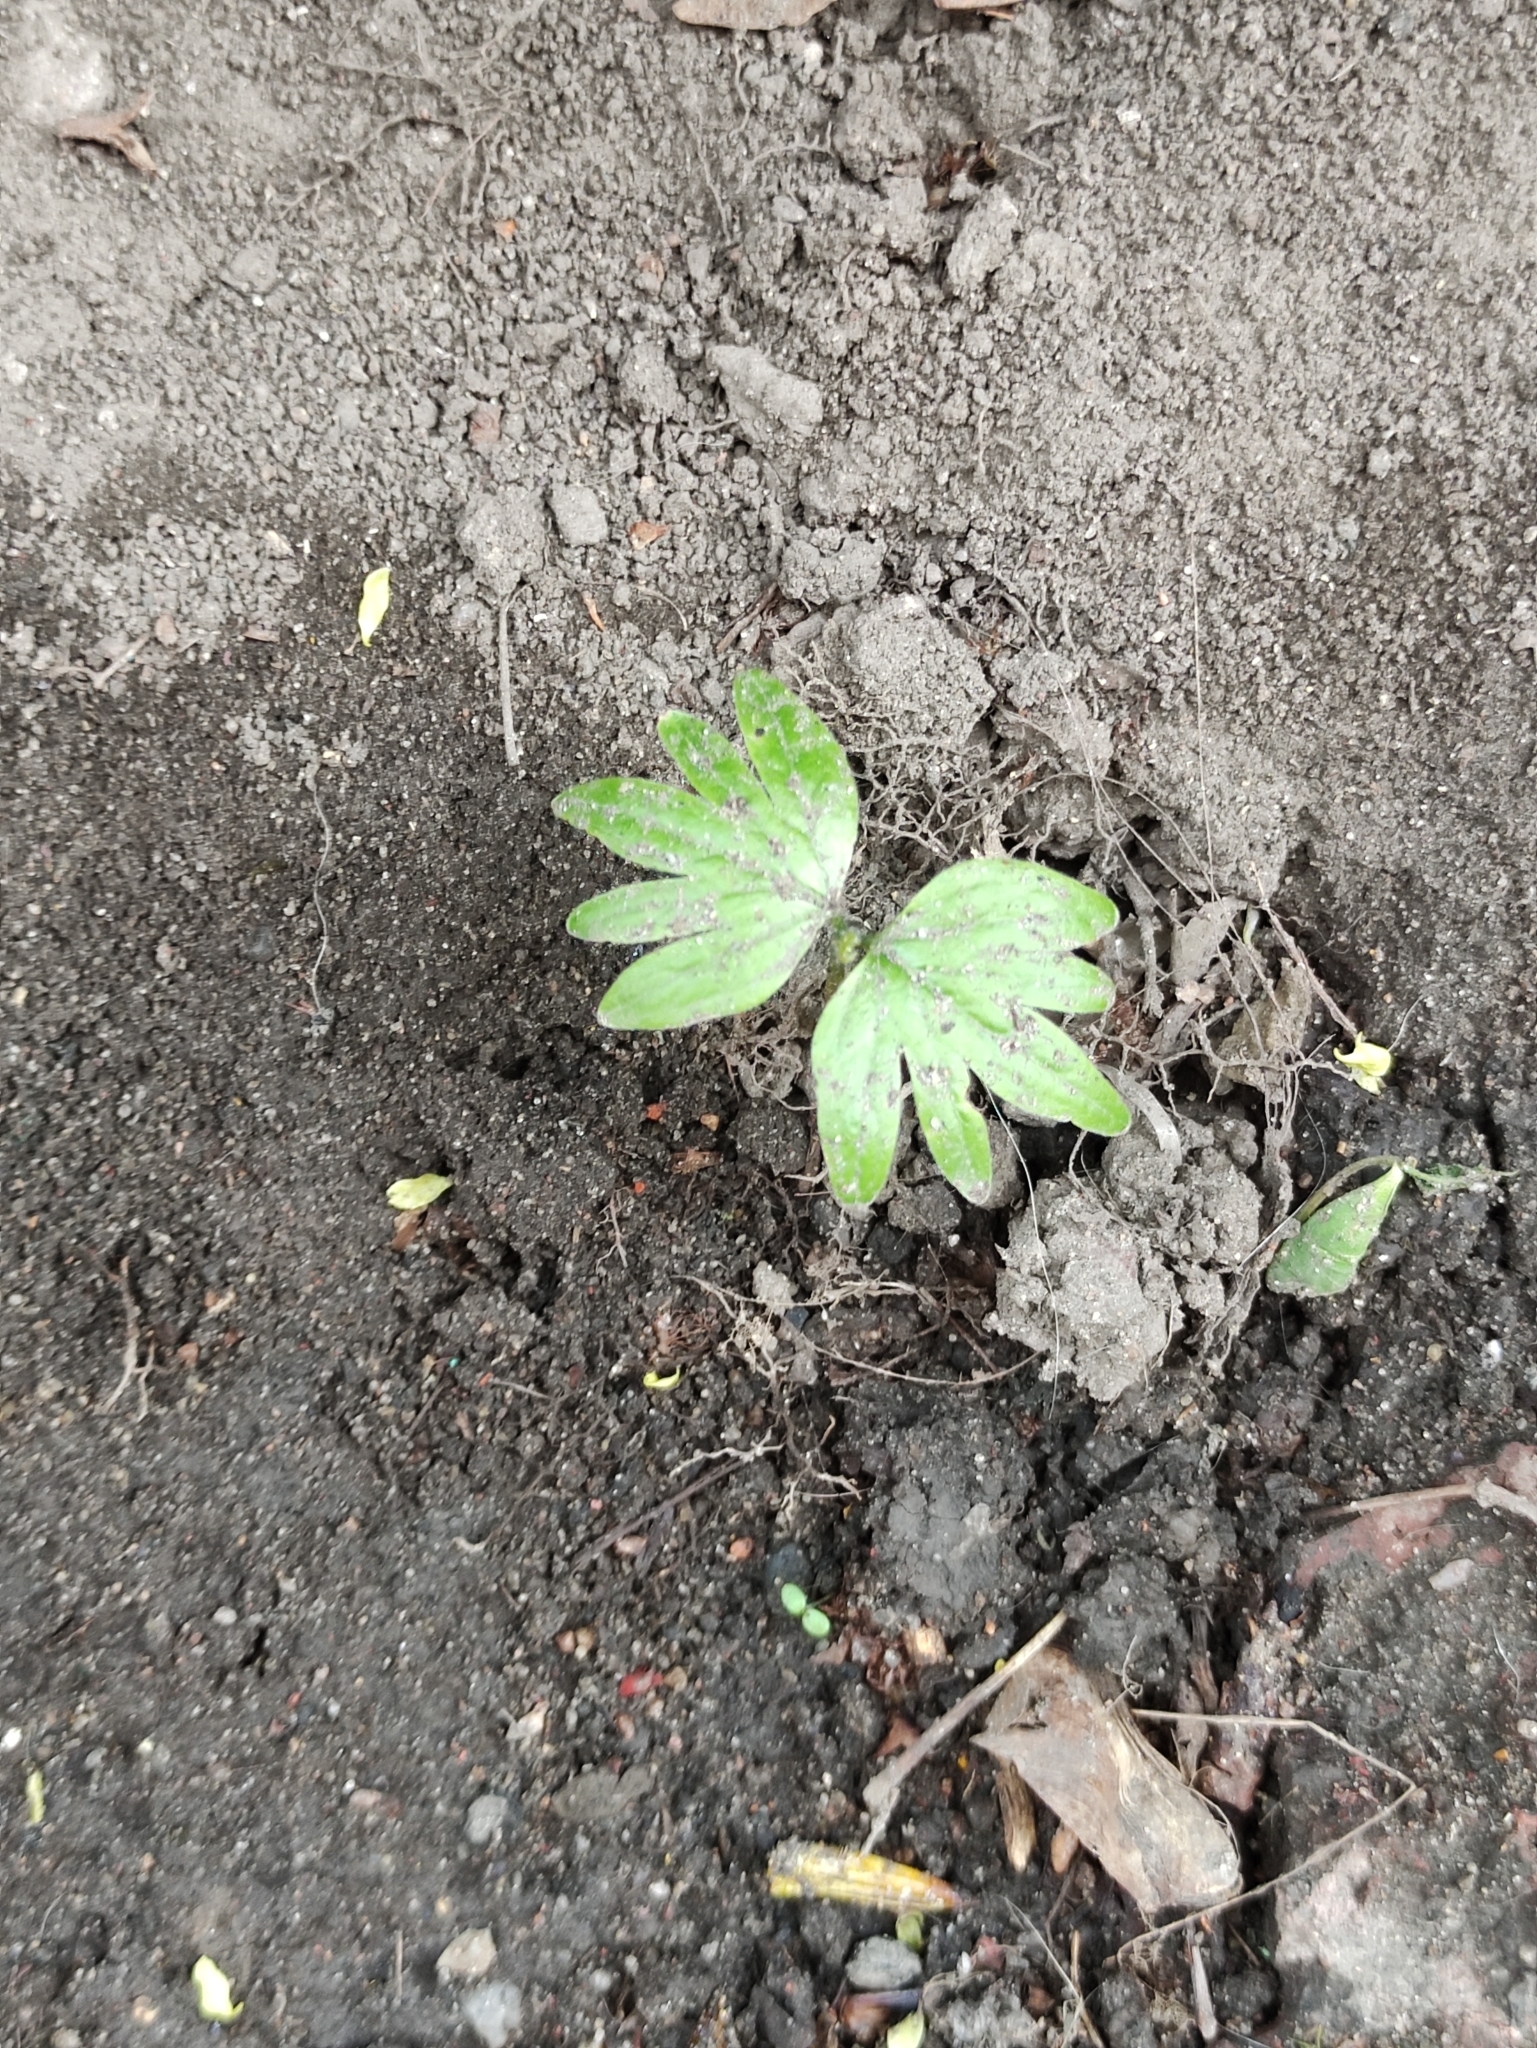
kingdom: Plantae
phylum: Tracheophyta
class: Magnoliopsida
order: Malvales
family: Malvaceae
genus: Tilia
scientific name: Tilia cordata
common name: Small-leaved lime
